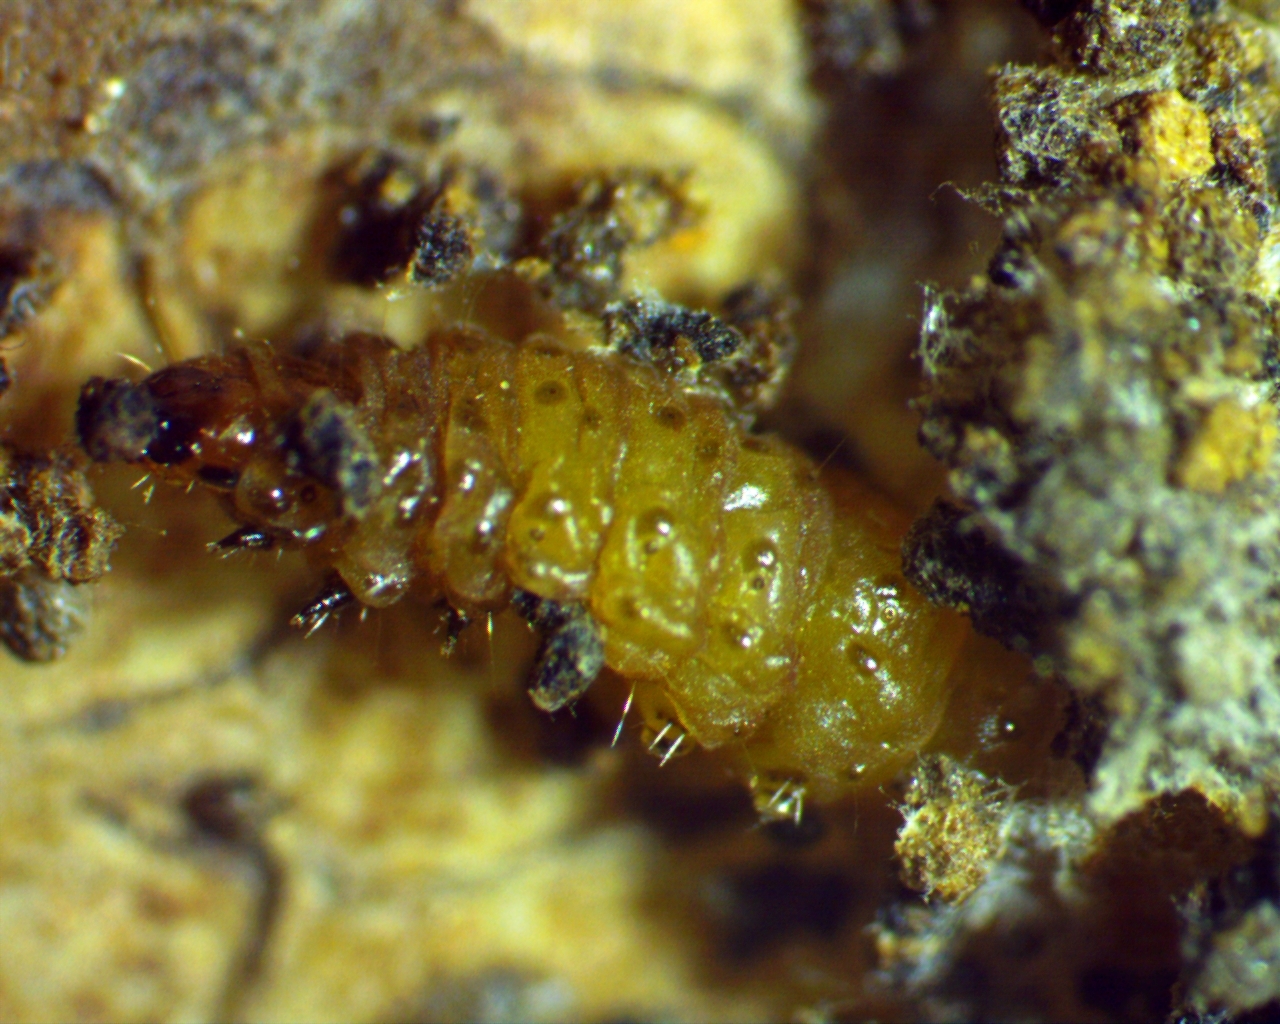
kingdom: Animalia
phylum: Arthropoda
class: Insecta
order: Lepidoptera
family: Tortricidae
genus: Rhopobota
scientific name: Rhopobota finitimana
